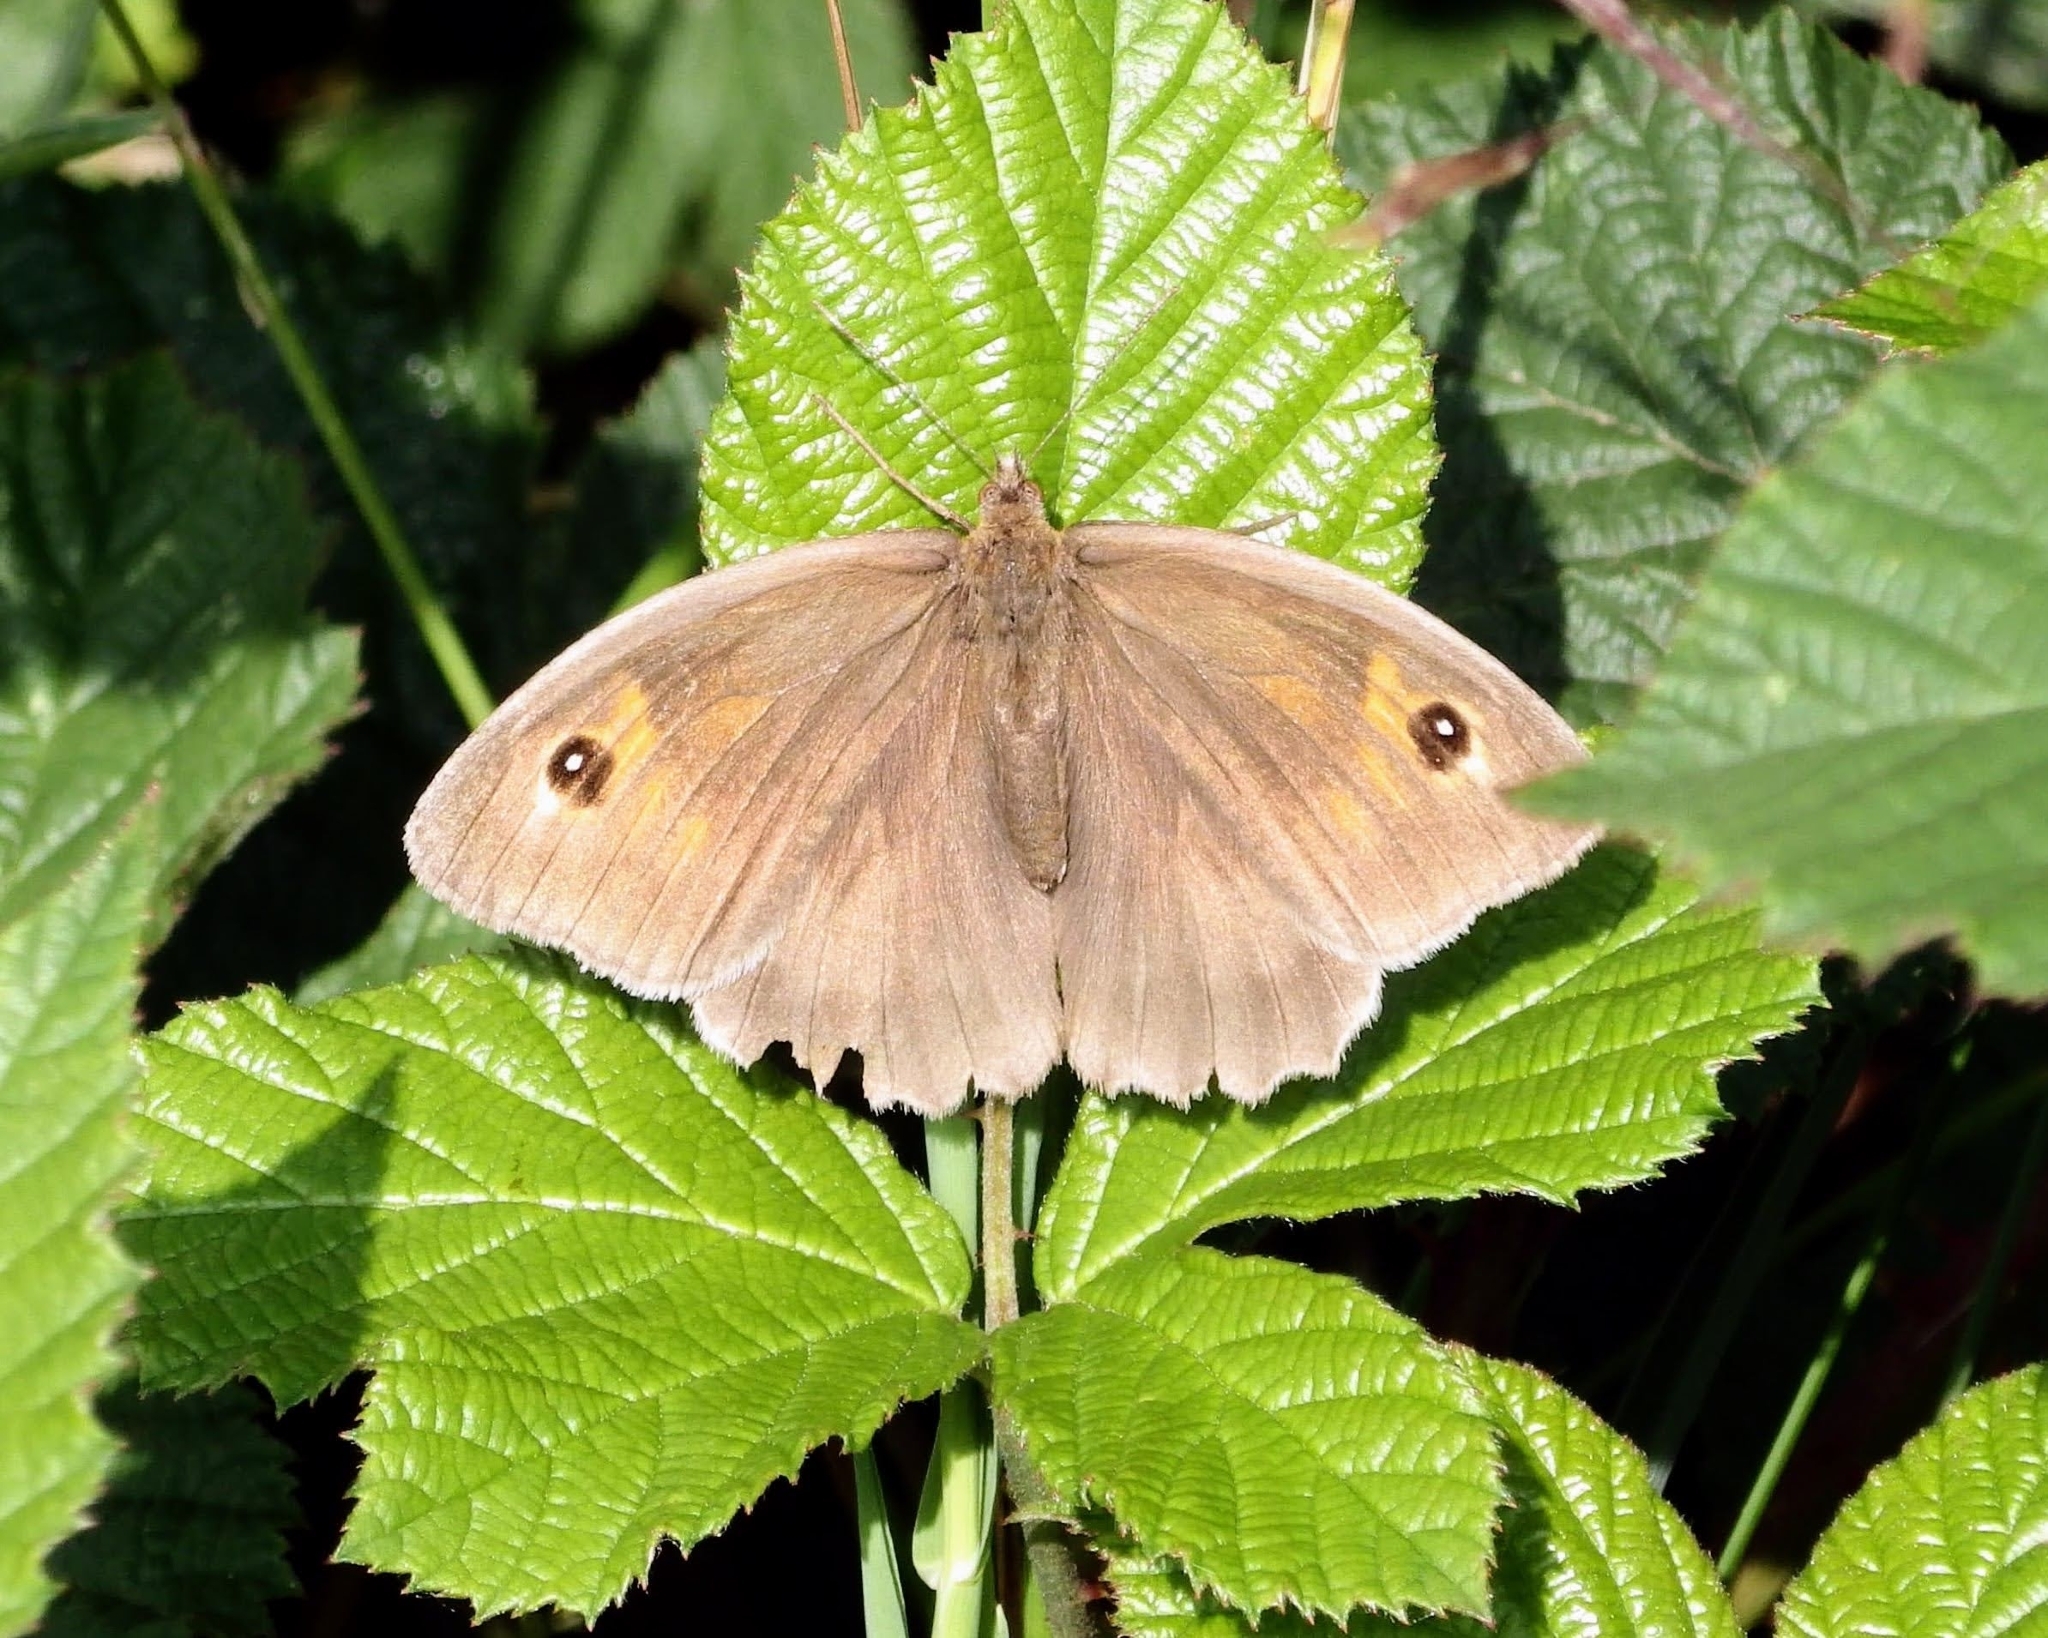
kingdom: Animalia
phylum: Arthropoda
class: Insecta
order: Lepidoptera
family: Nymphalidae
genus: Maniola
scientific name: Maniola jurtina
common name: Meadow brown
